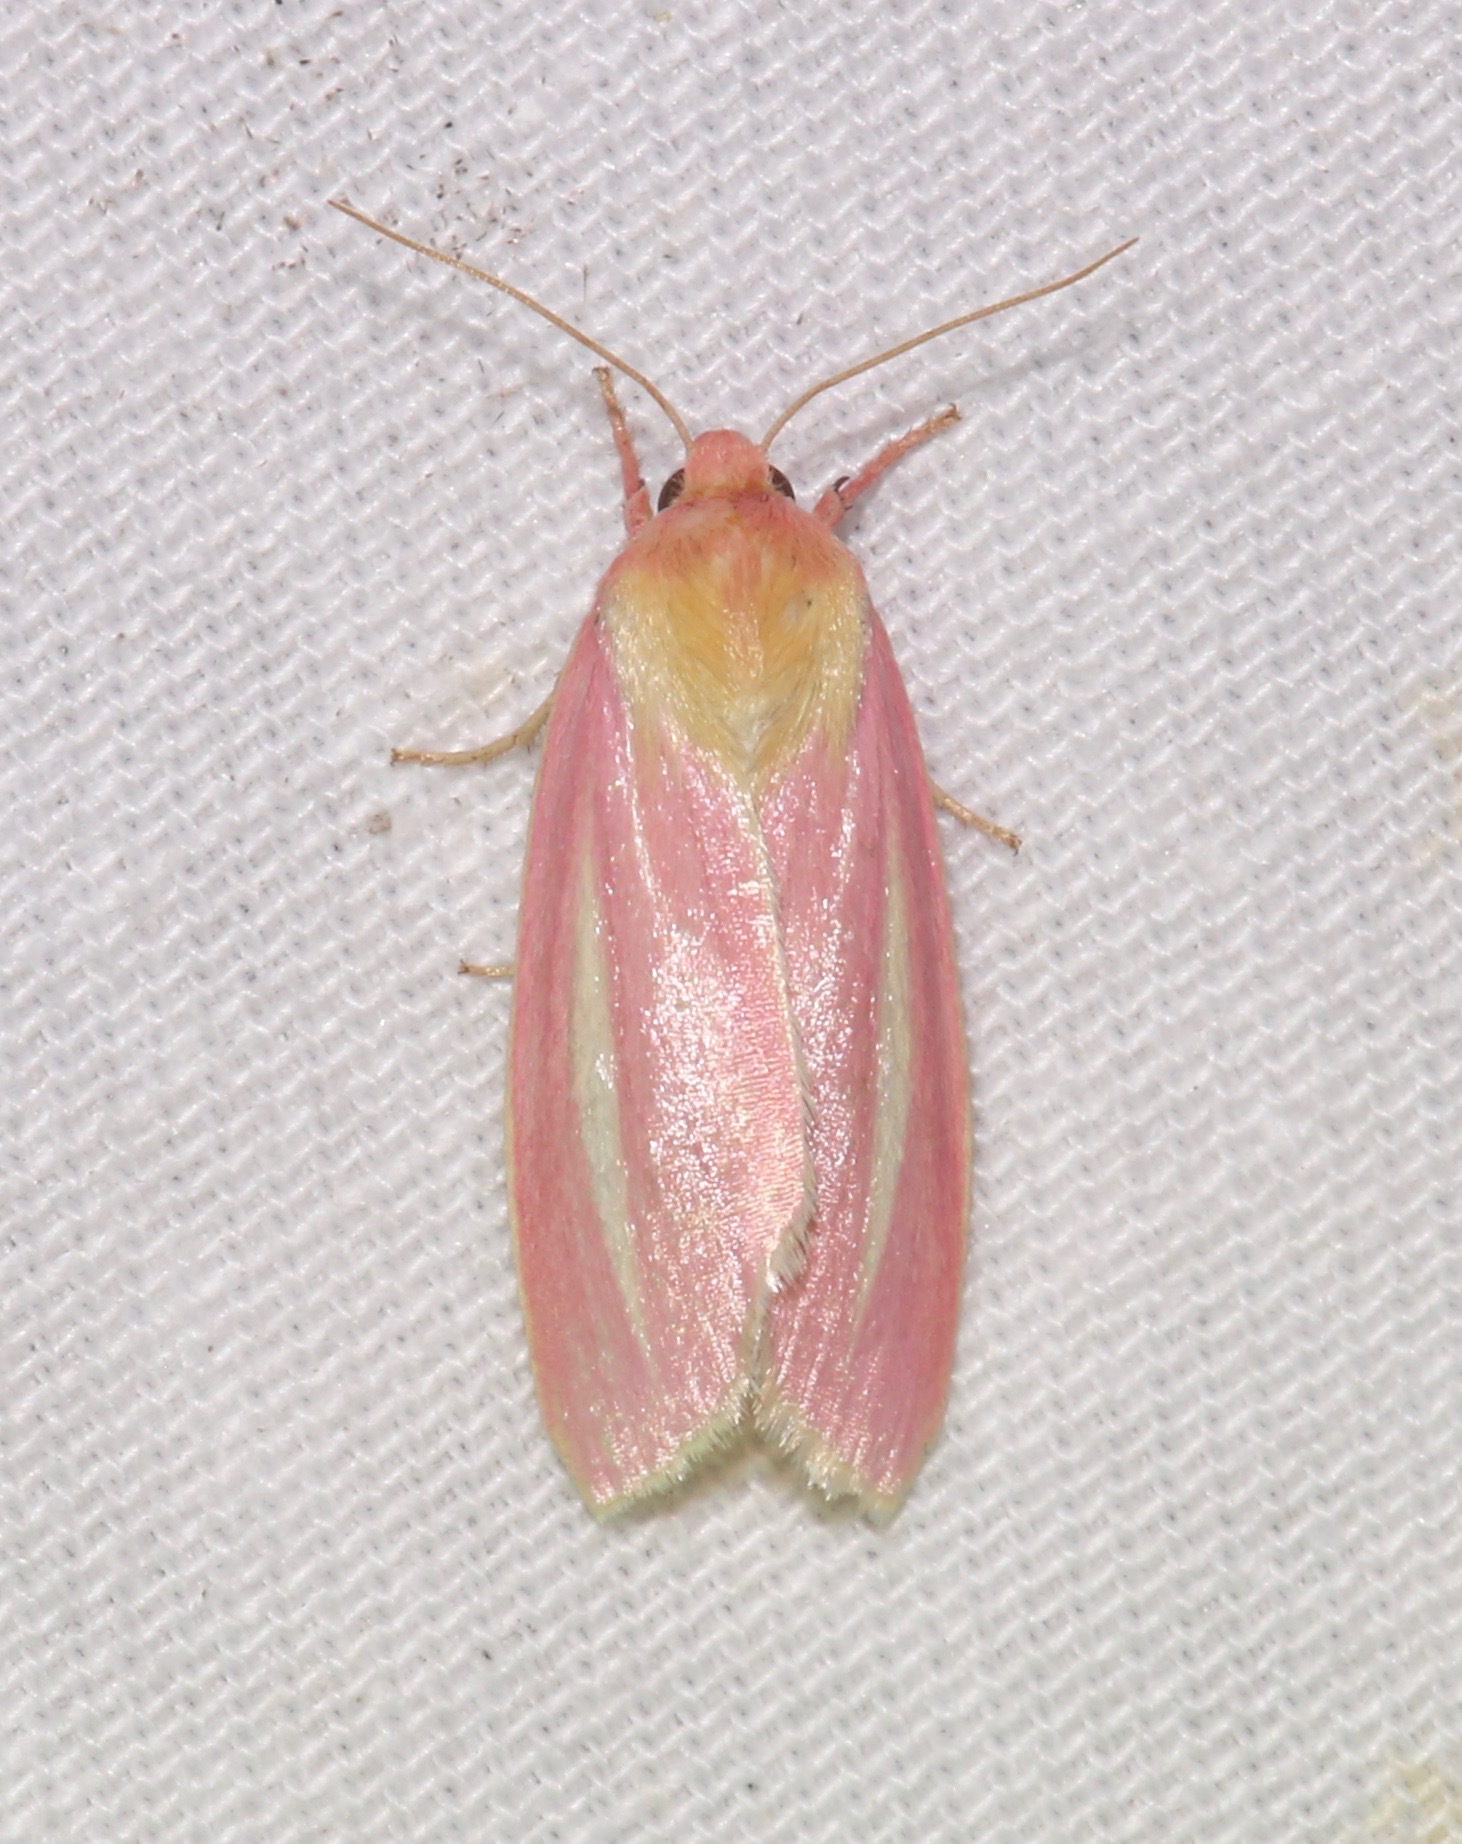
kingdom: Animalia
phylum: Arthropoda
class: Insecta
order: Lepidoptera
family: Noctuidae
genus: Heliocheilus
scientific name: Heliocheilus julia
